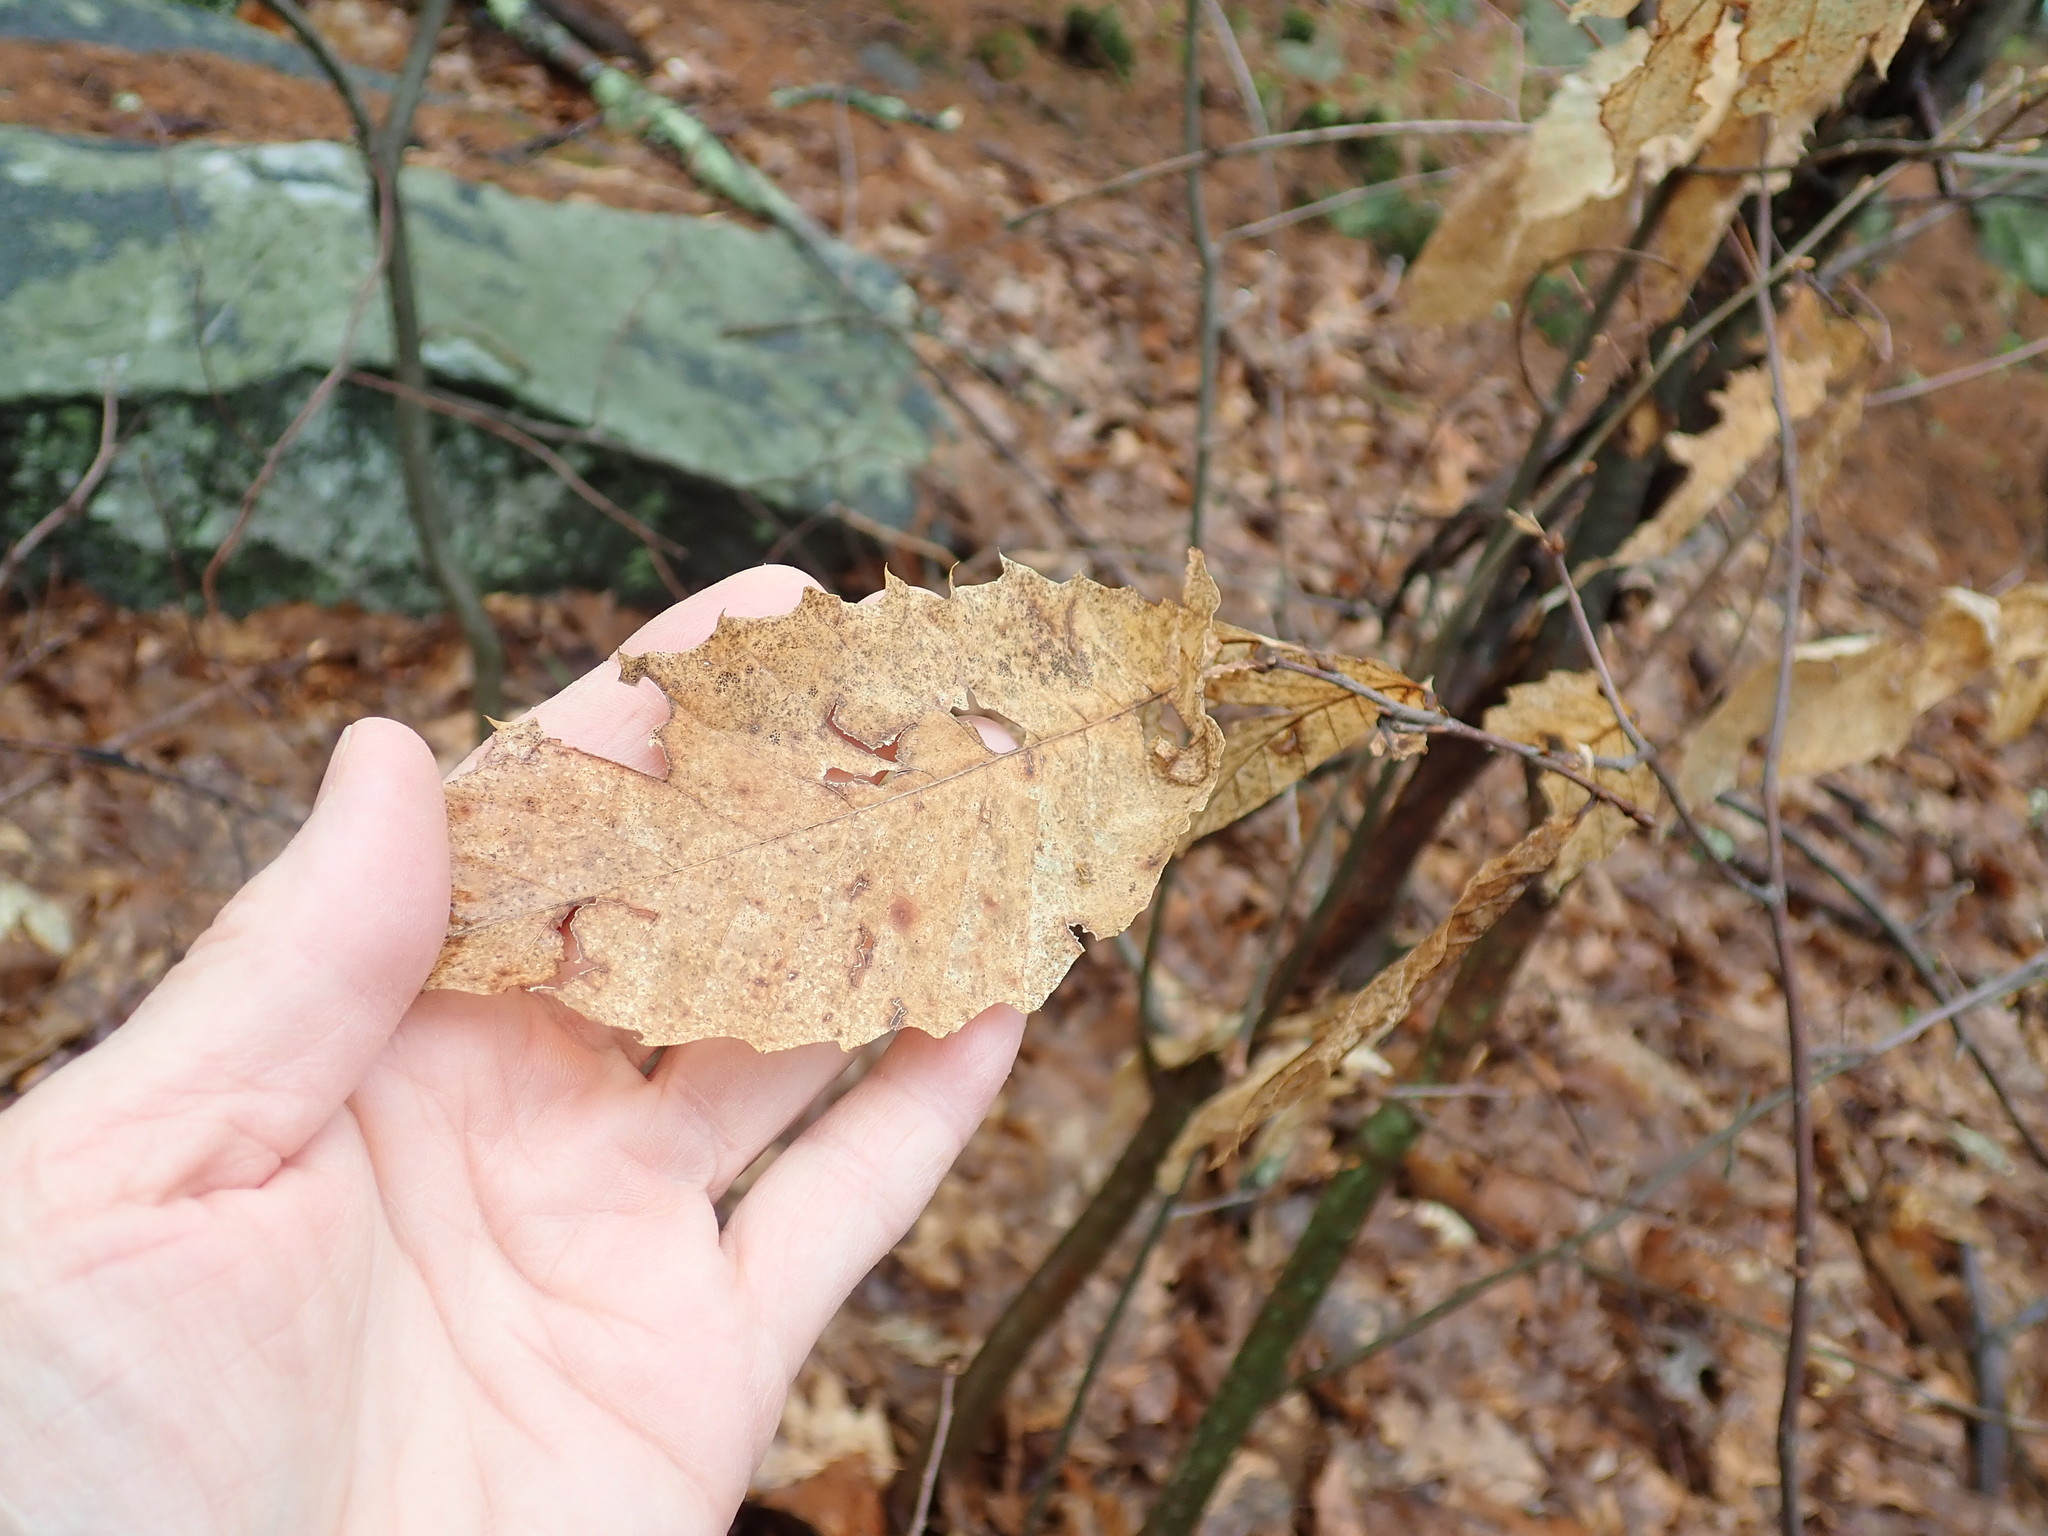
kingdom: Plantae
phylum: Tracheophyta
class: Magnoliopsida
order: Fagales
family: Fagaceae
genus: Castanea
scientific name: Castanea dentata
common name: American chestnut
